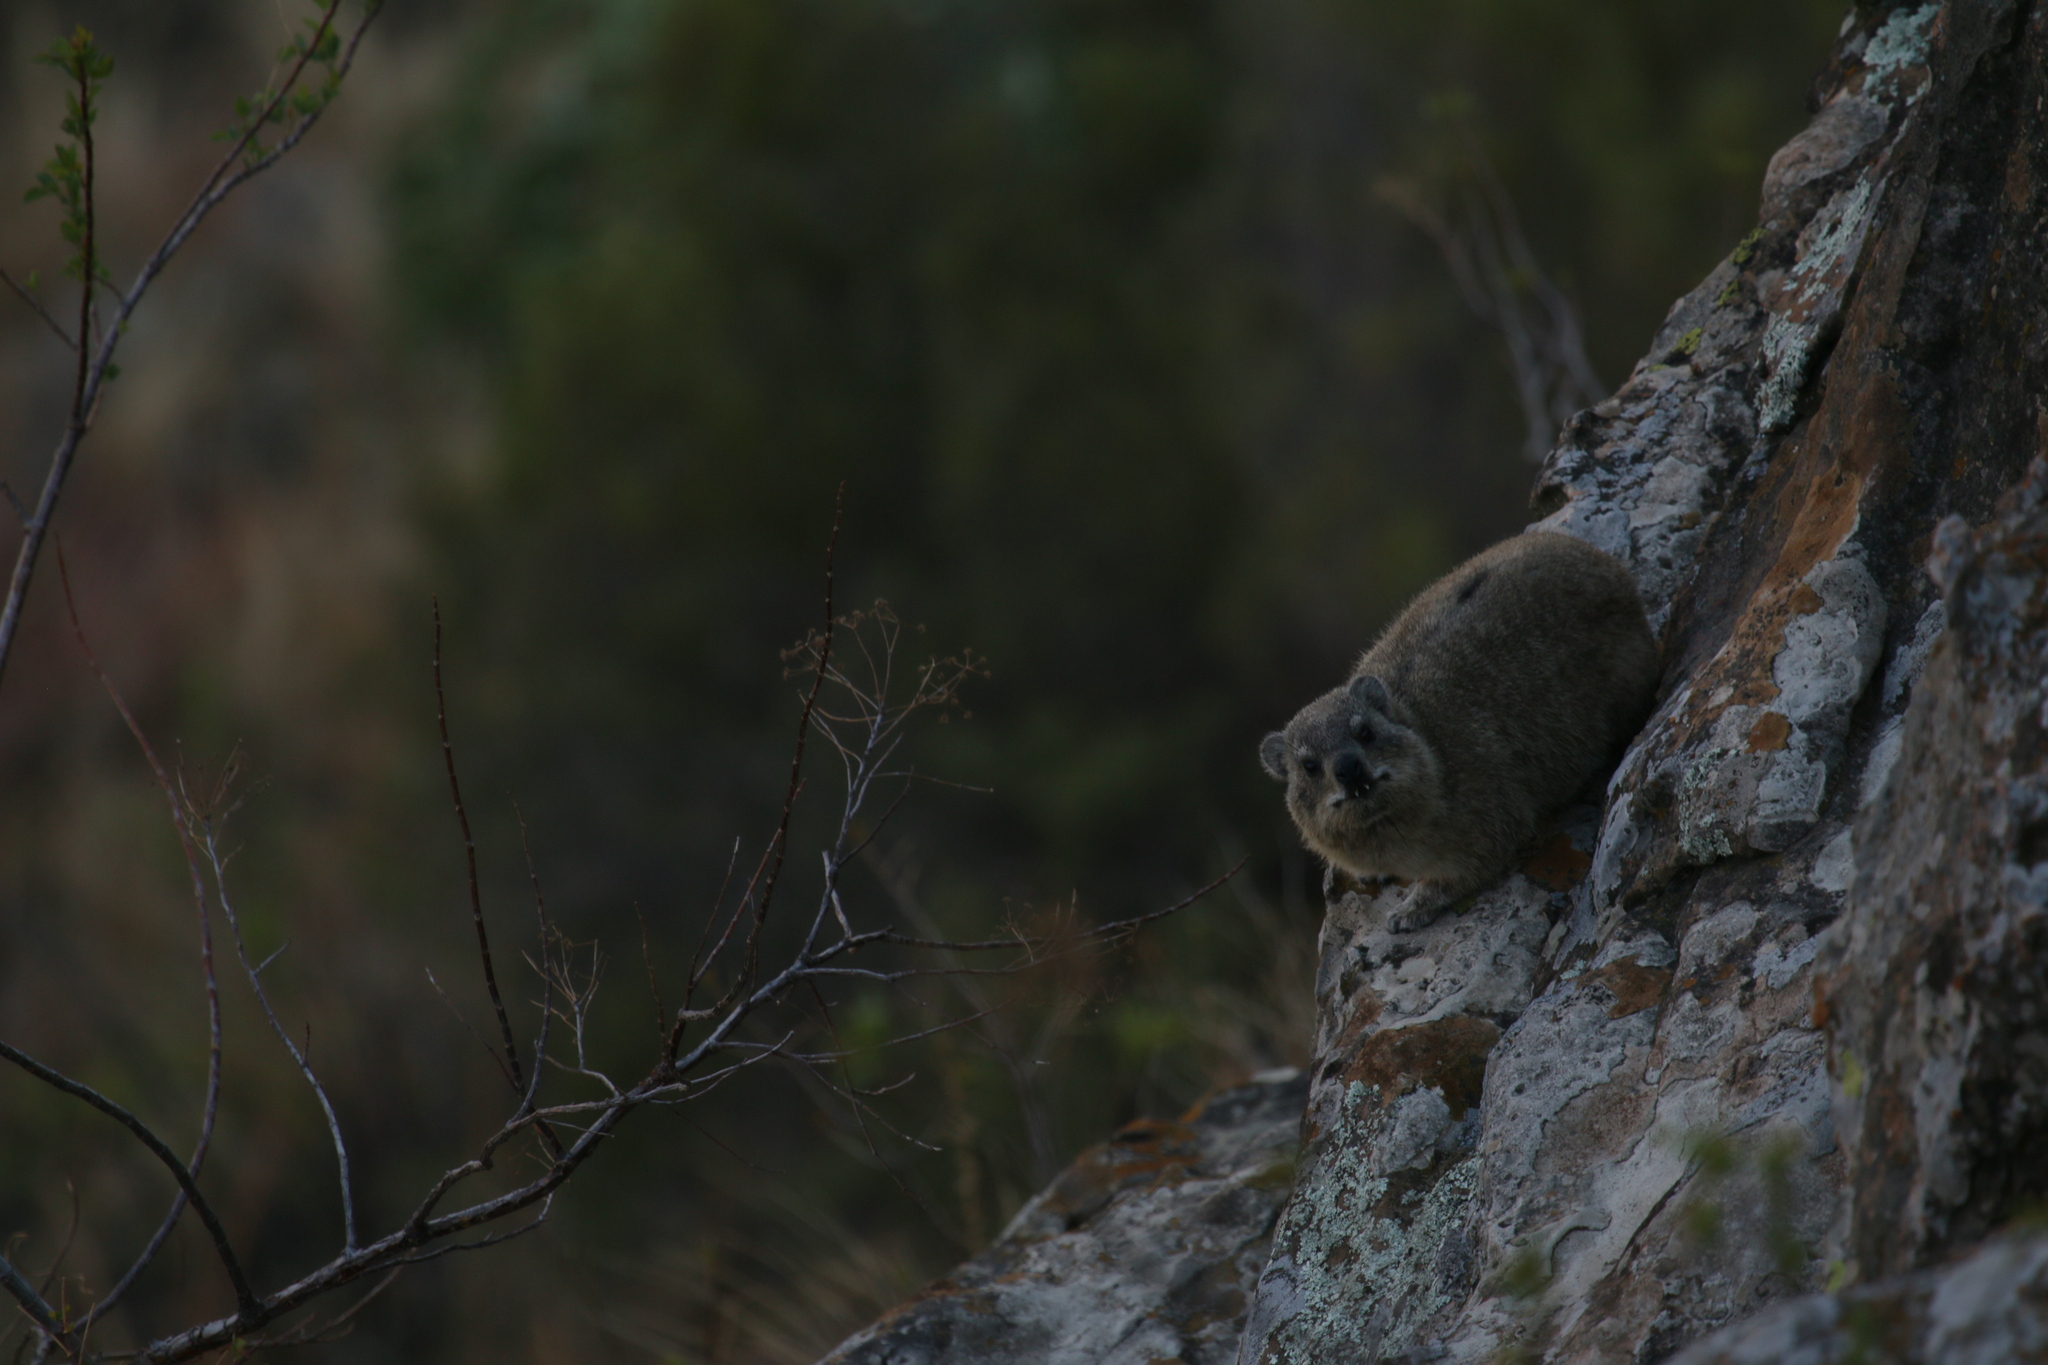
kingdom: Animalia
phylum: Chordata
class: Mammalia
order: Hyracoidea
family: Procaviidae
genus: Procavia
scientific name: Procavia capensis
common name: Rock hyrax
